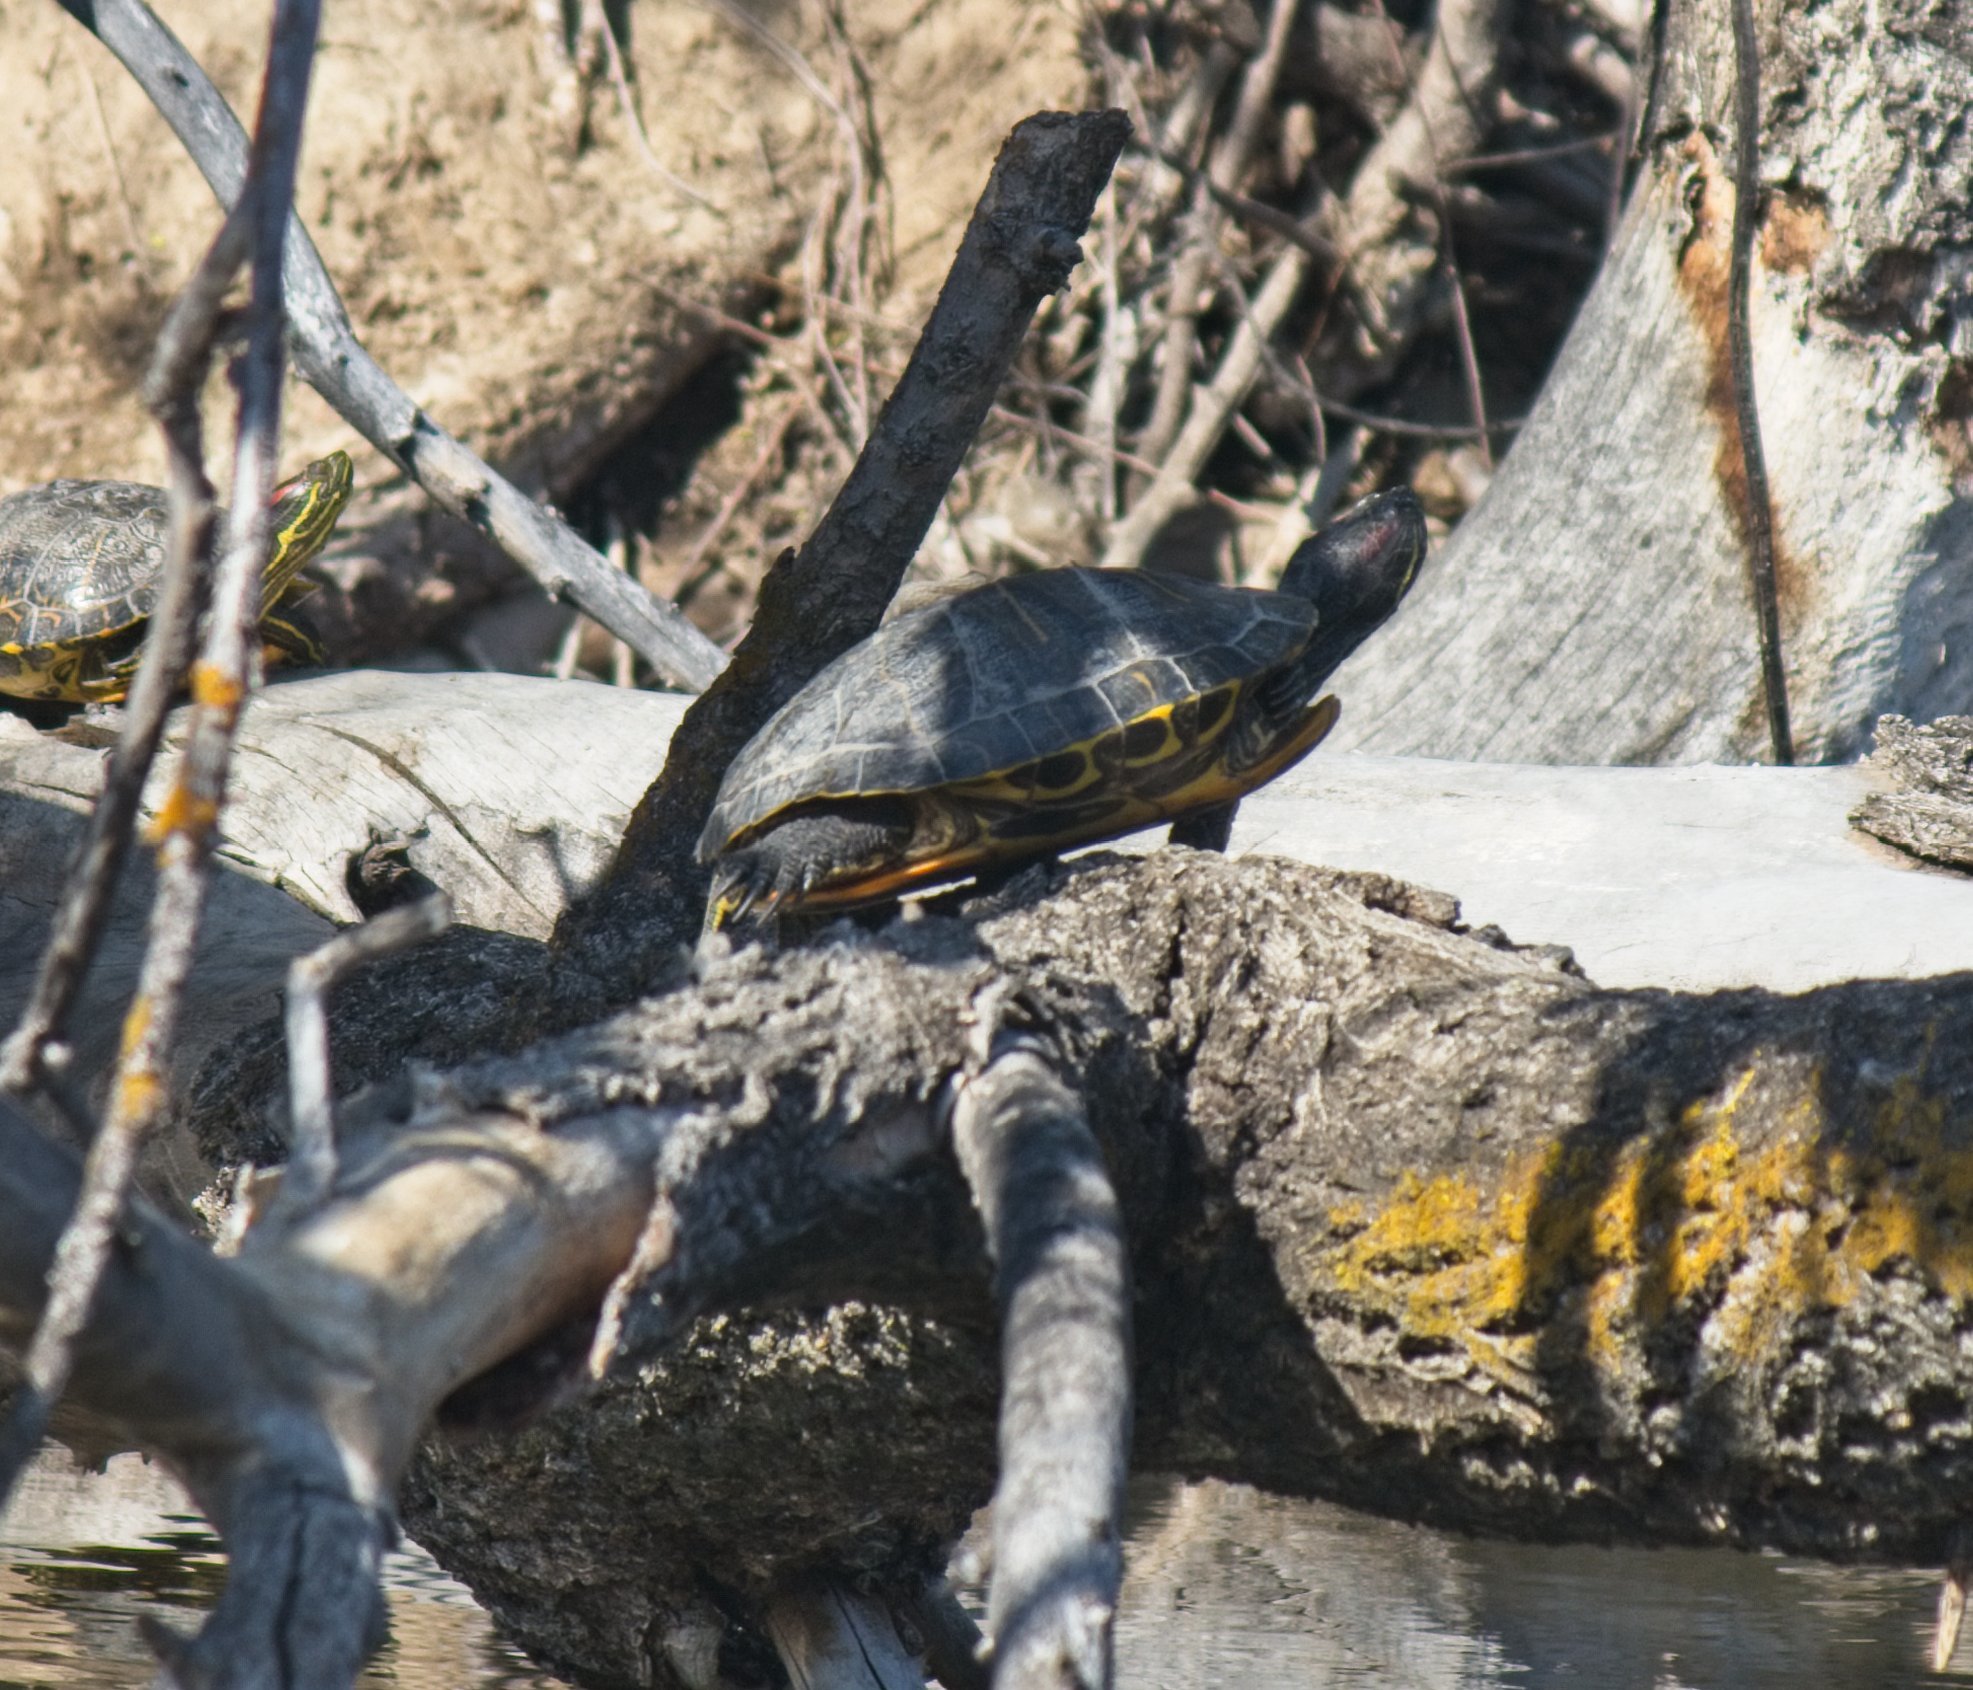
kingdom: Animalia
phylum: Chordata
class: Testudines
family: Emydidae
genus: Trachemys
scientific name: Trachemys scripta
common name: Slider
